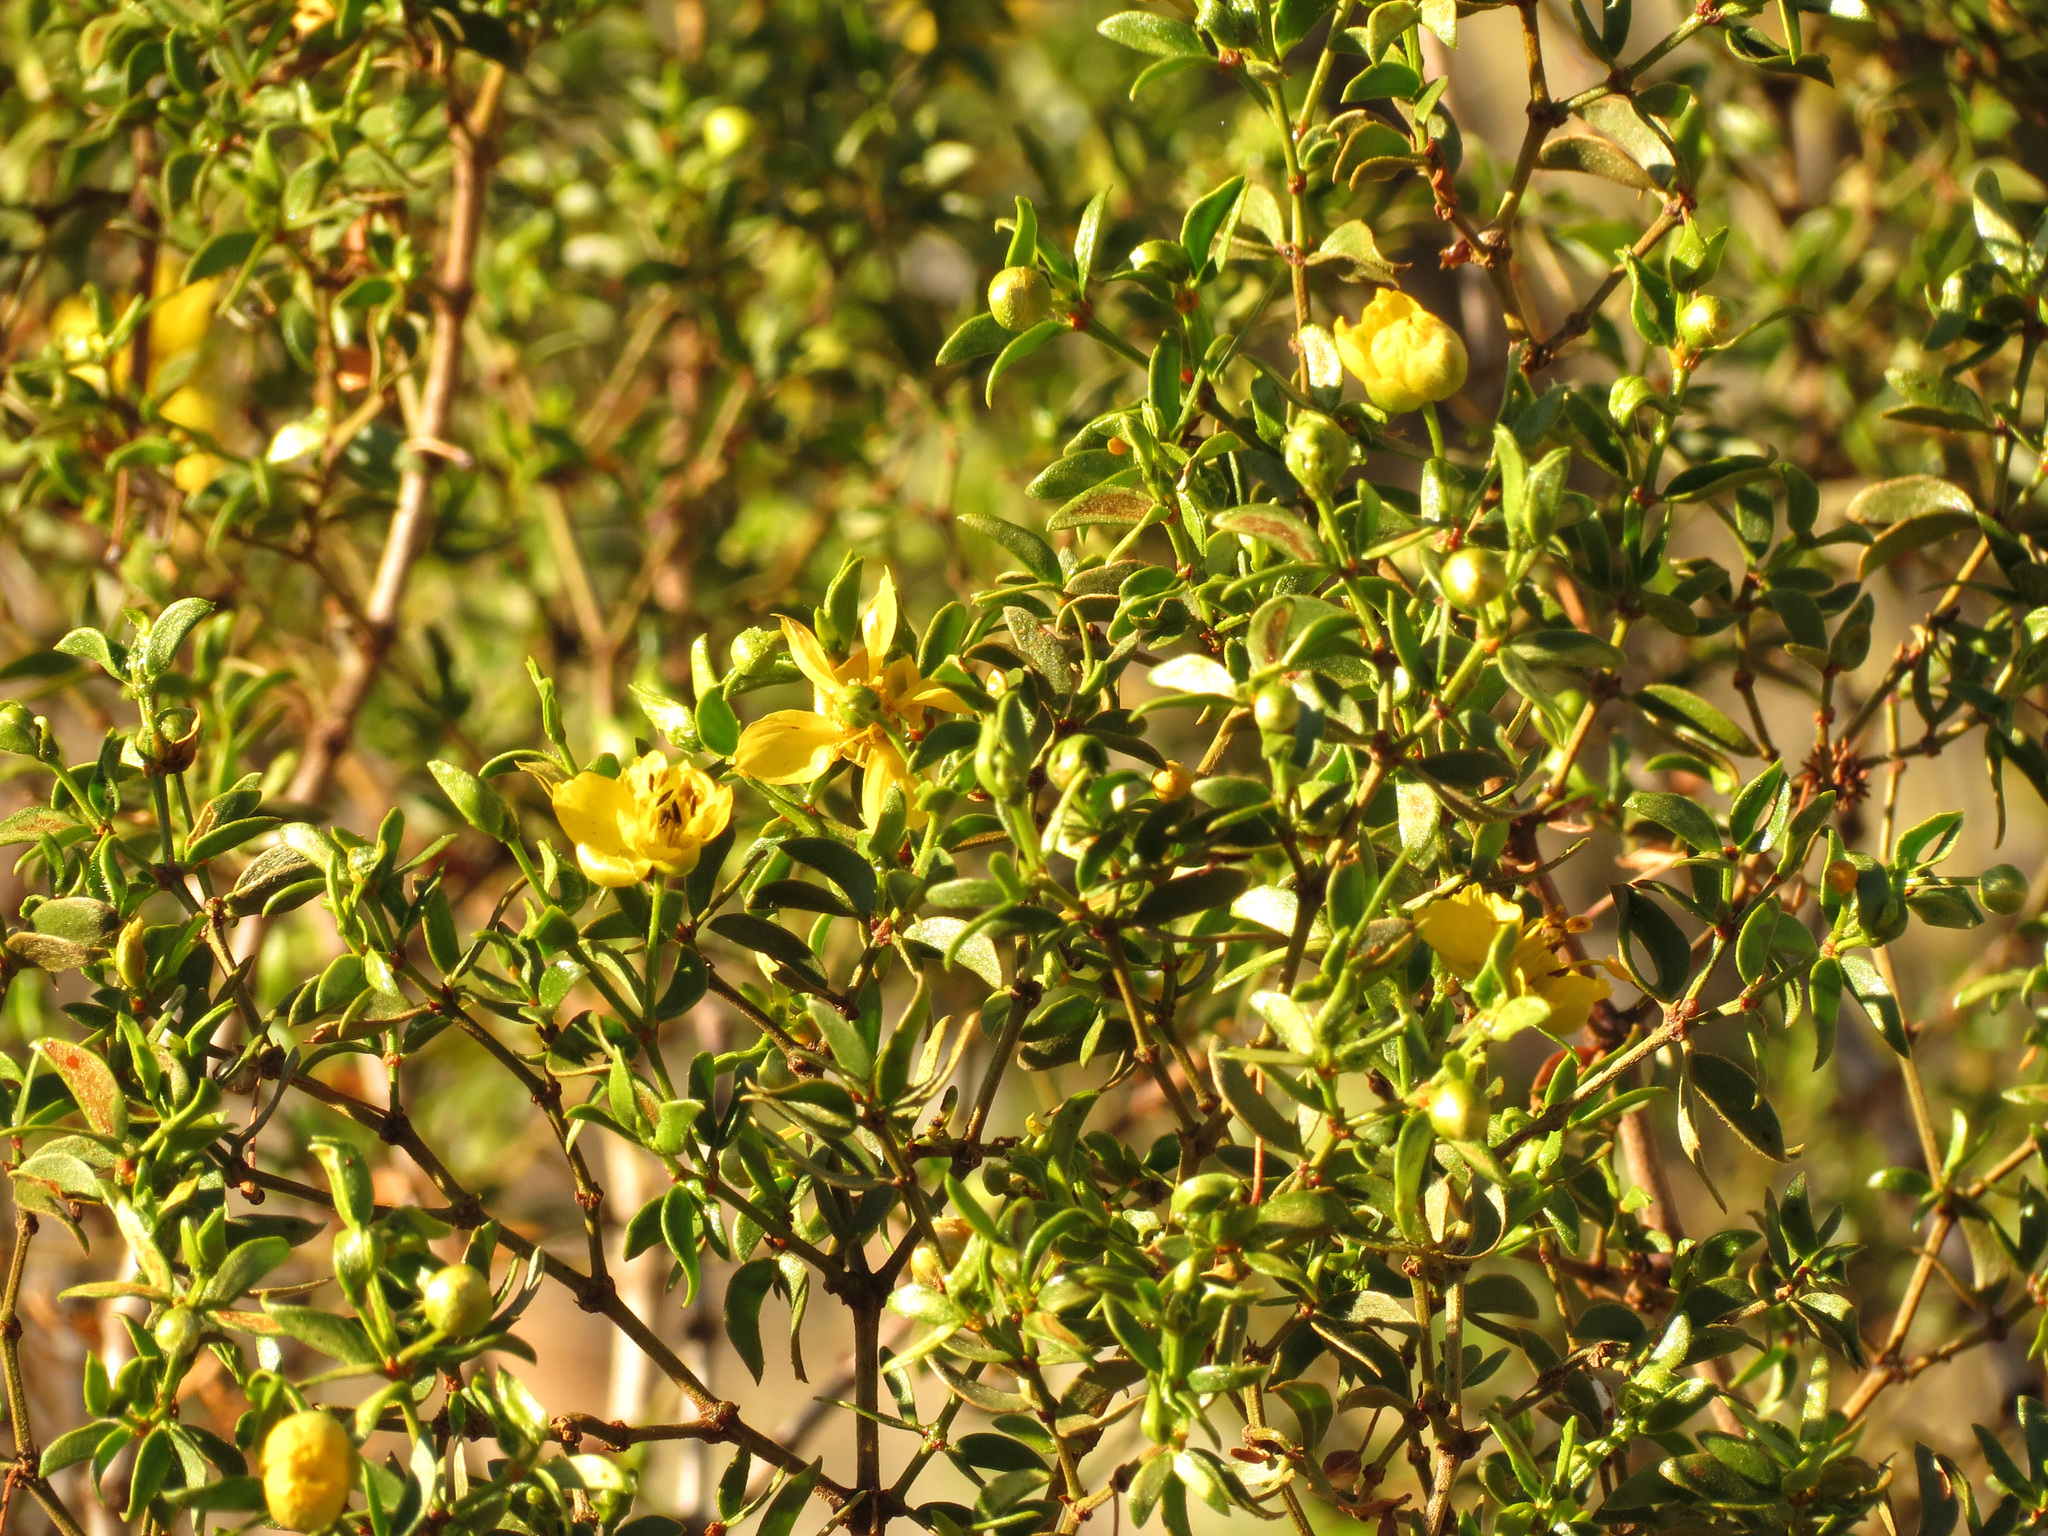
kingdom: Plantae
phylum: Tracheophyta
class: Magnoliopsida
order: Zygophyllales
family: Zygophyllaceae
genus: Larrea
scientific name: Larrea tridentata
